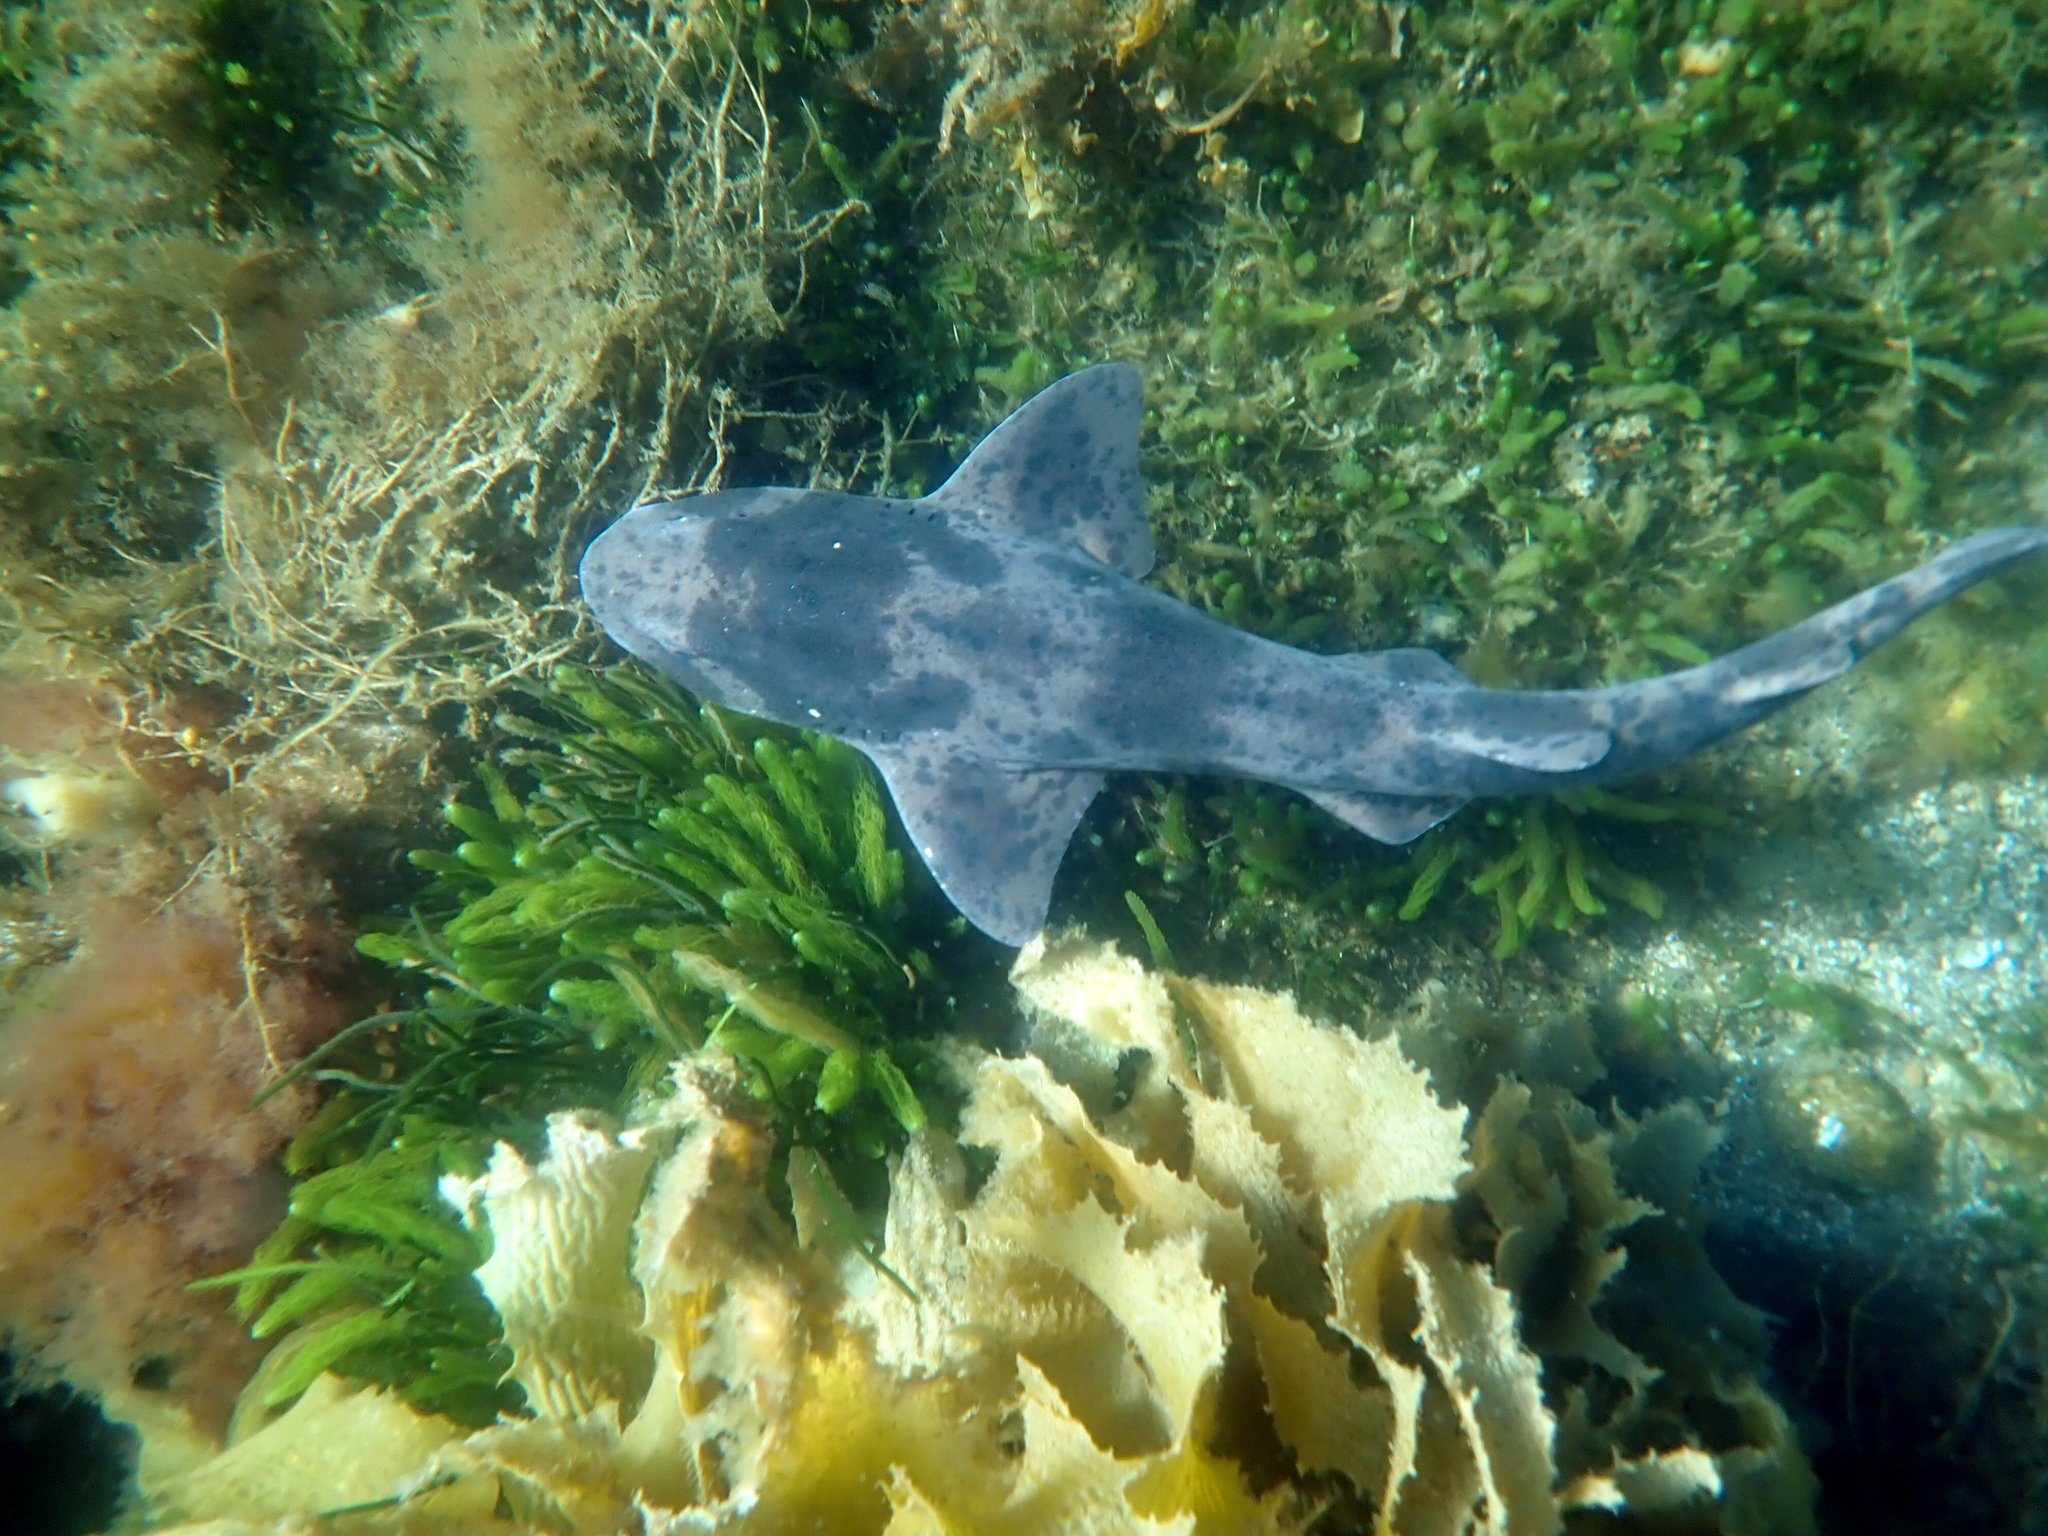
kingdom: Animalia
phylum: Chordata
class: Elasmobranchii
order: Carcharhiniformes
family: Scyliorhinidae
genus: Cephaloscyllium
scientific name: Cephaloscyllium laticeps
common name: Australian swellshark
